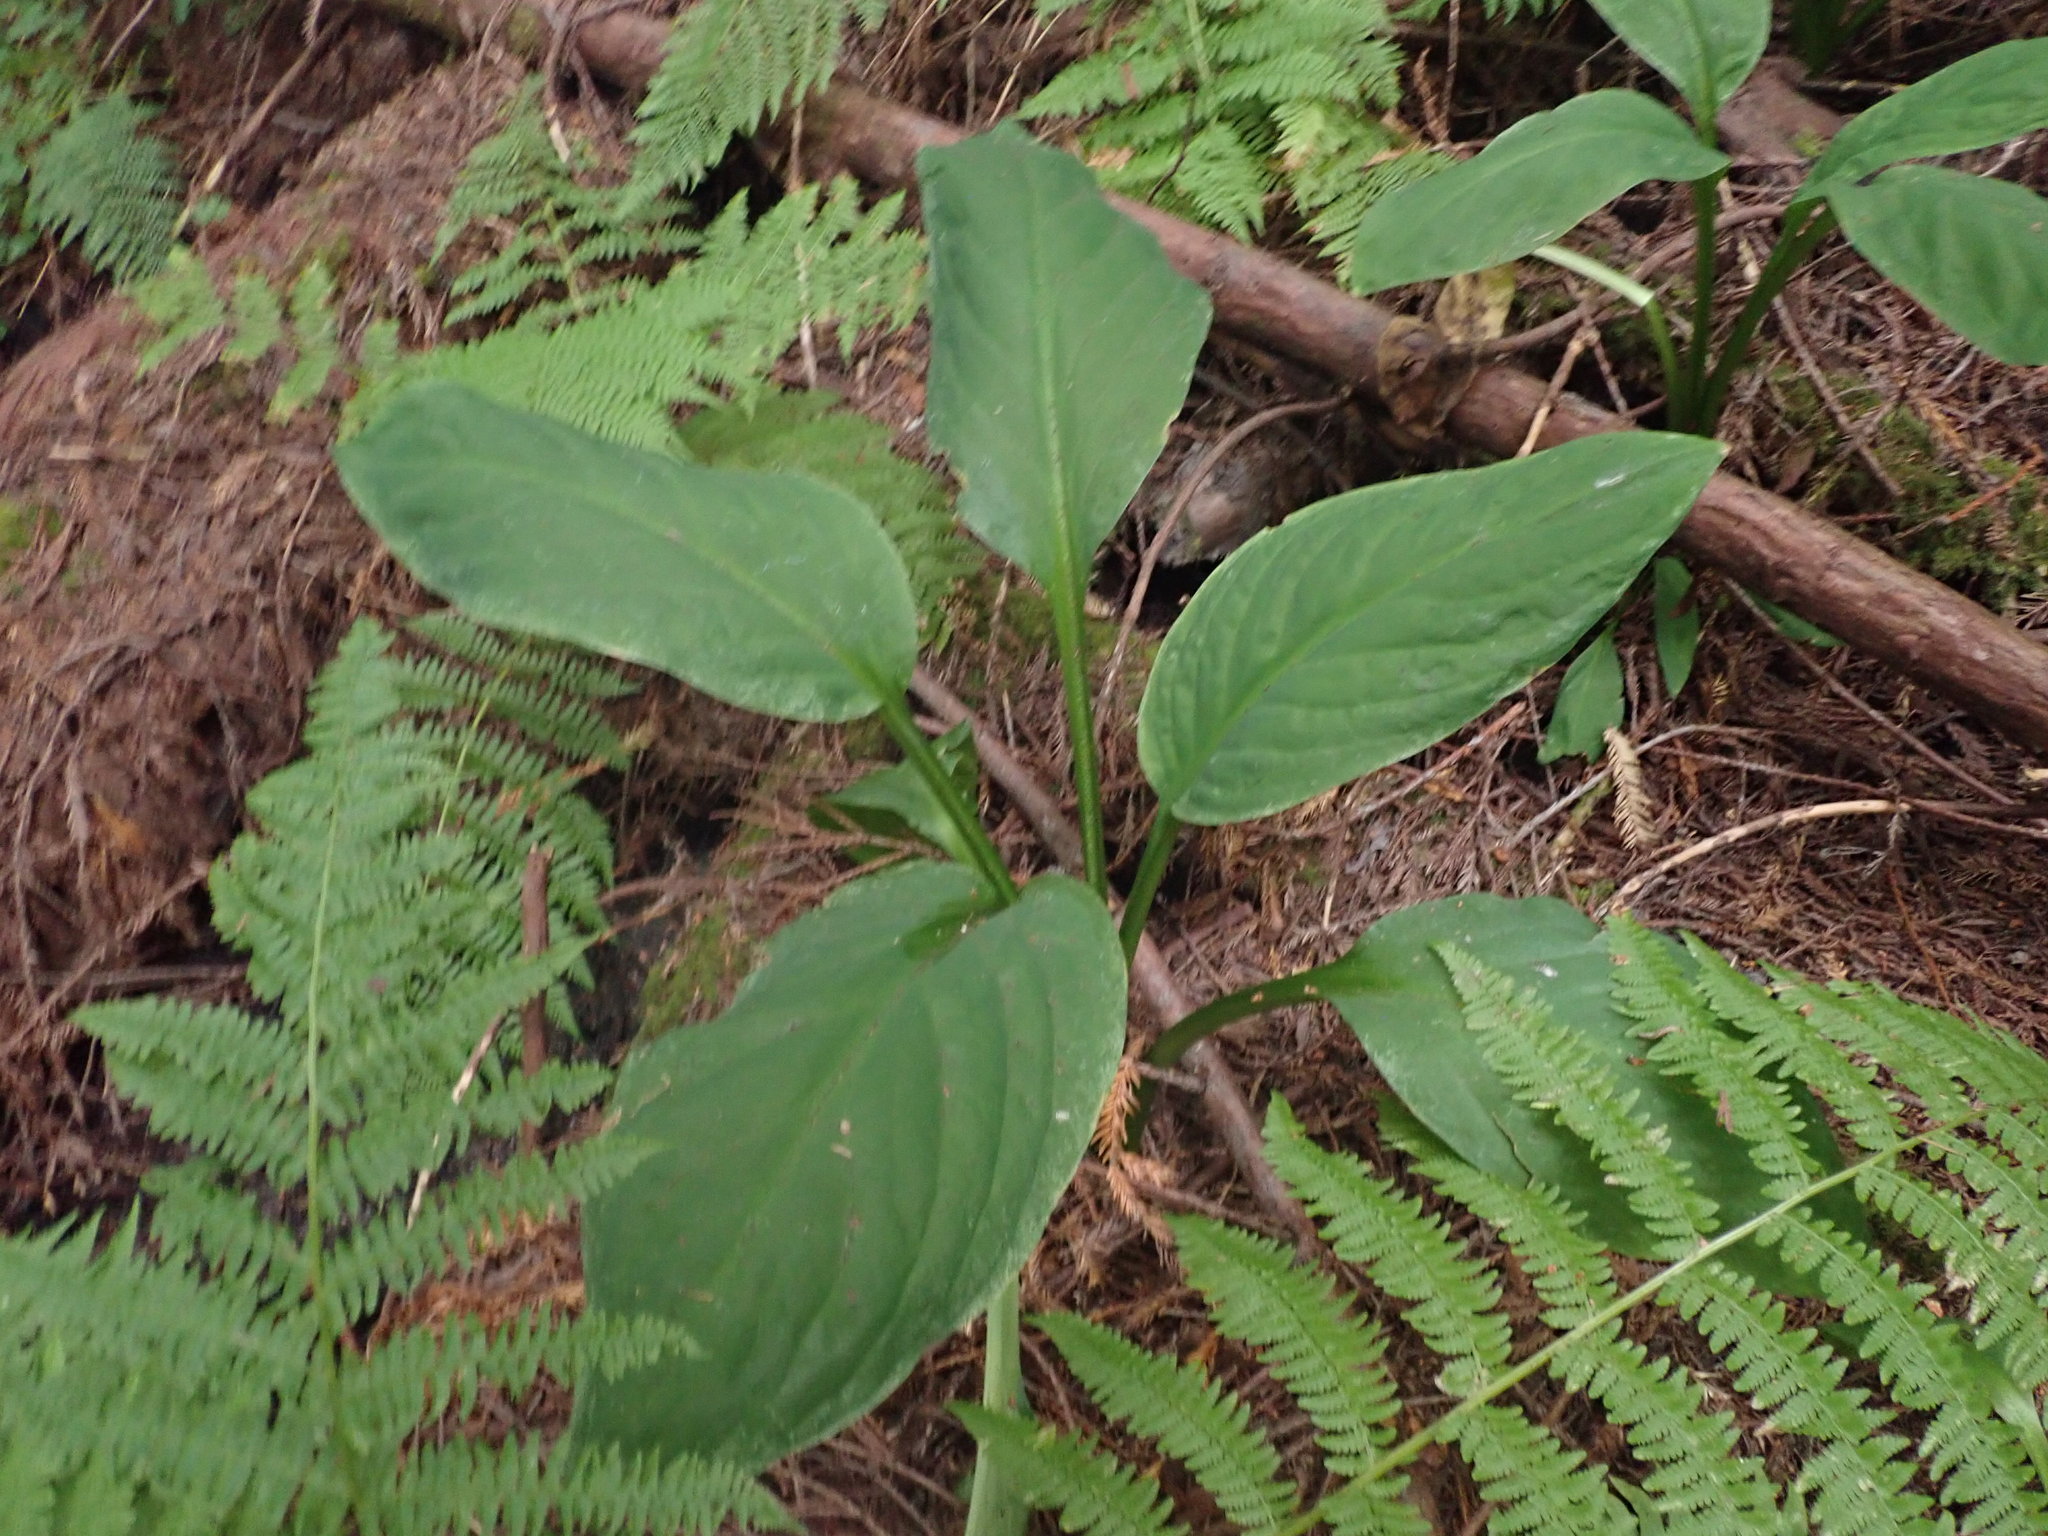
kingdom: Plantae
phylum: Tracheophyta
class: Liliopsida
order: Alismatales
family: Araceae
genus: Lysichiton
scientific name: Lysichiton americanus
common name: American skunk cabbage
